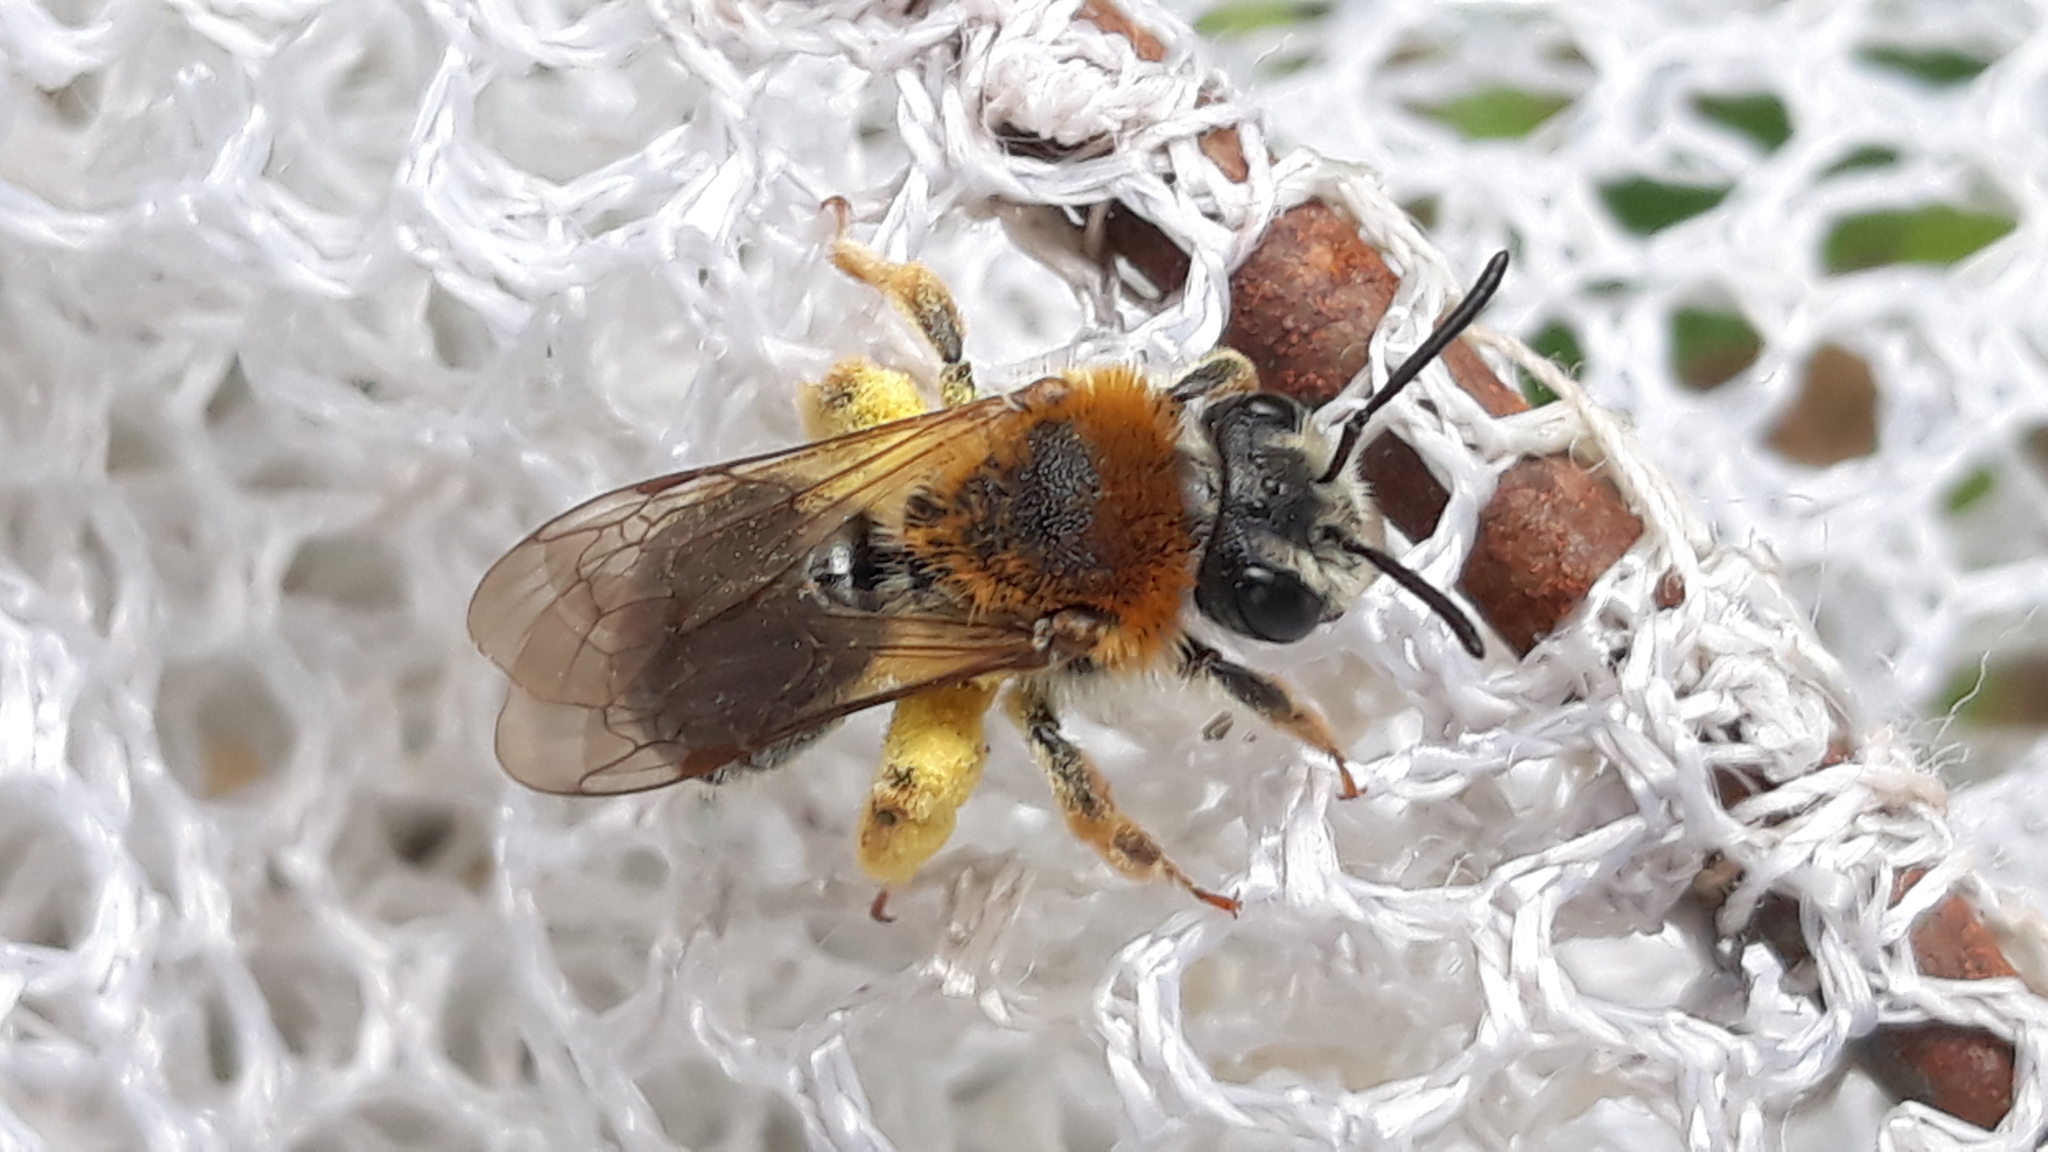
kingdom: Animalia
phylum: Arthropoda
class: Insecta
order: Hymenoptera
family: Andrenidae
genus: Andrena
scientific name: Andrena haemorrhoa
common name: Early mining bee
